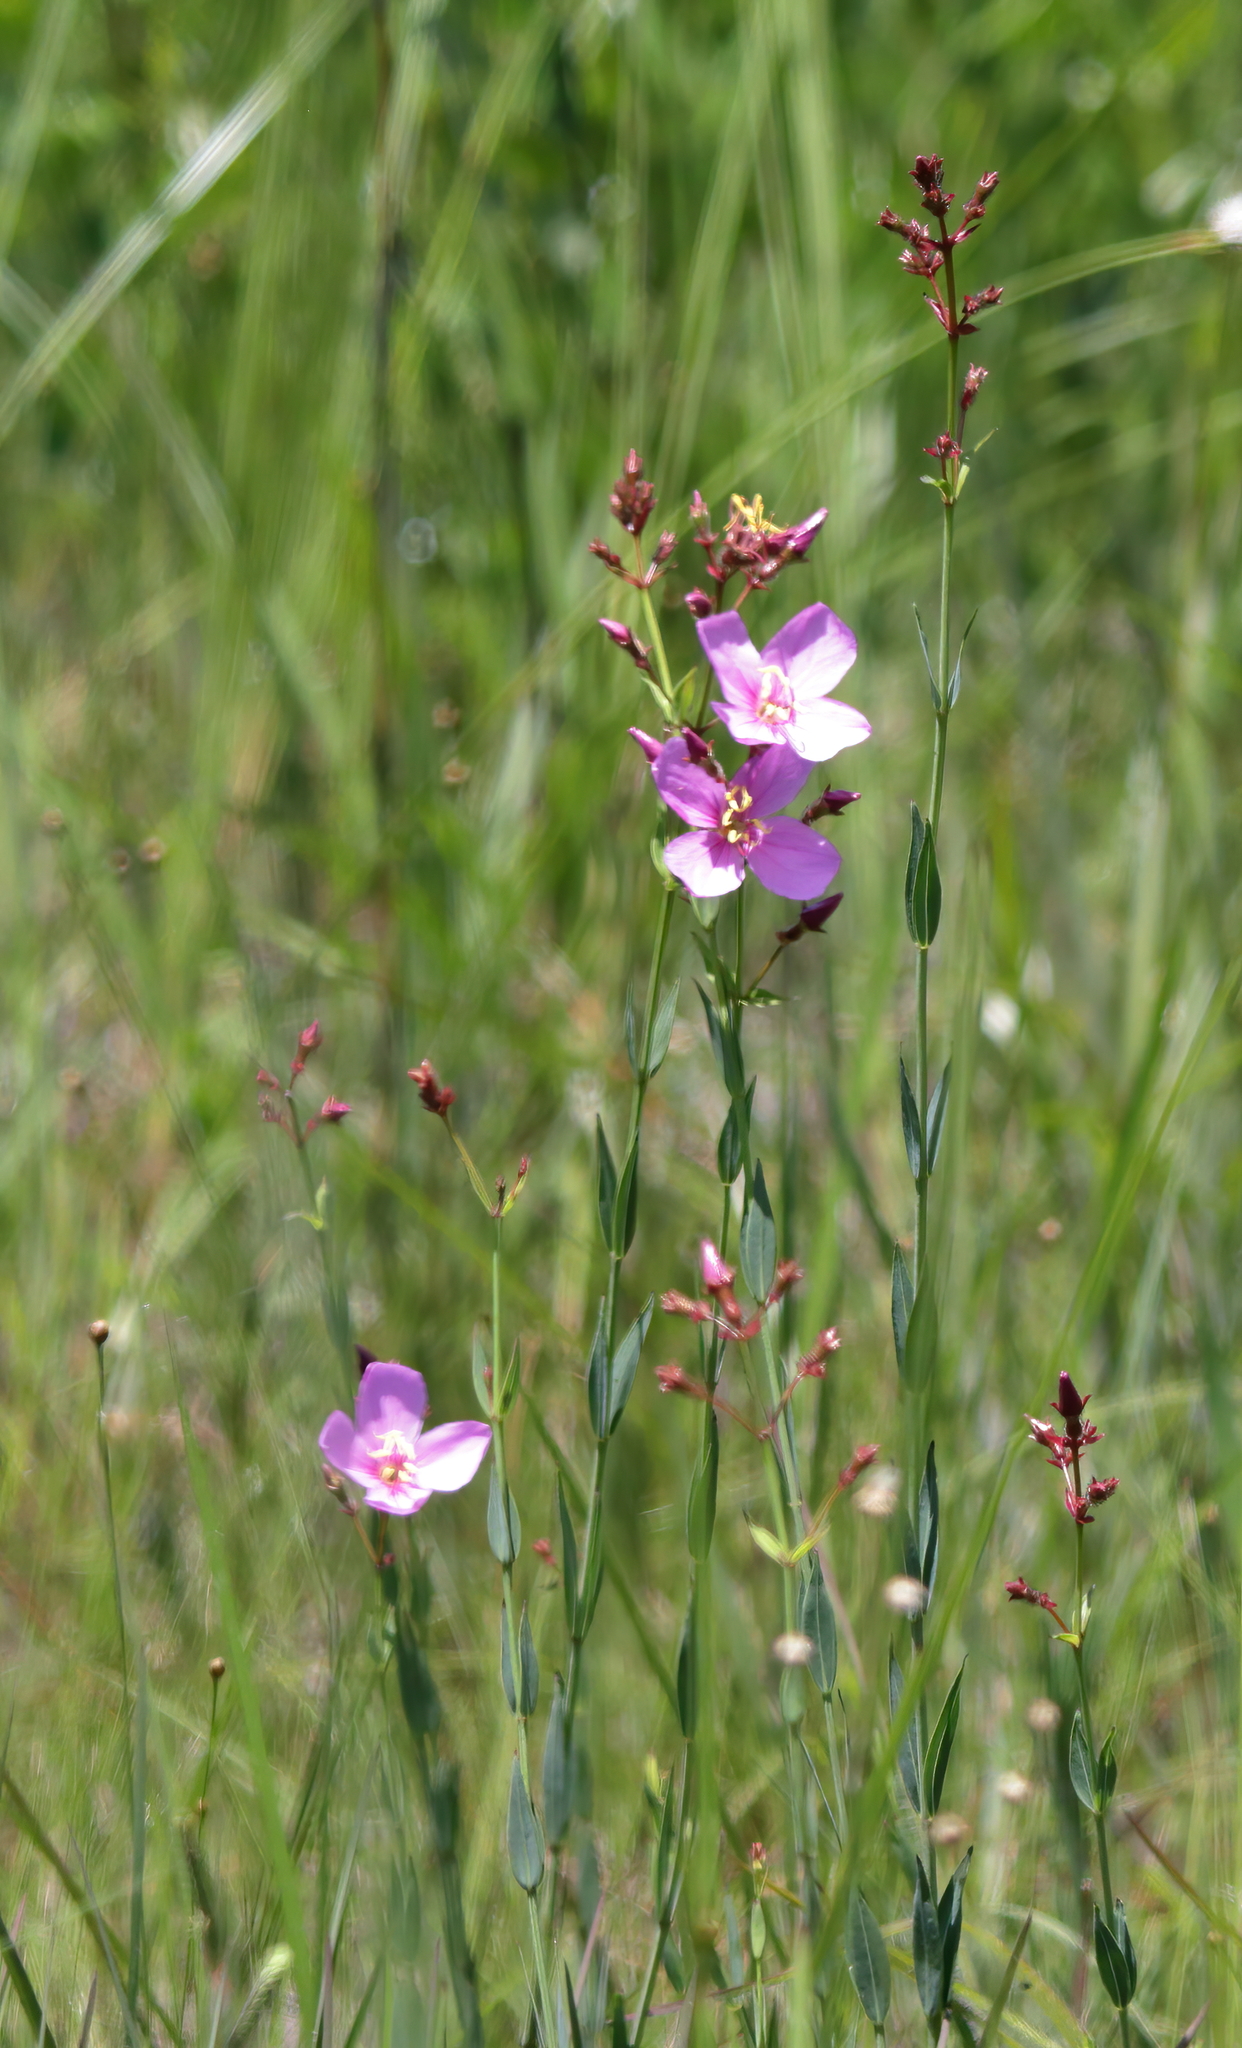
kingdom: Plantae
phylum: Tracheophyta
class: Magnoliopsida
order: Myrtales
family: Melastomataceae
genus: Rhexia
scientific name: Rhexia alifanus
